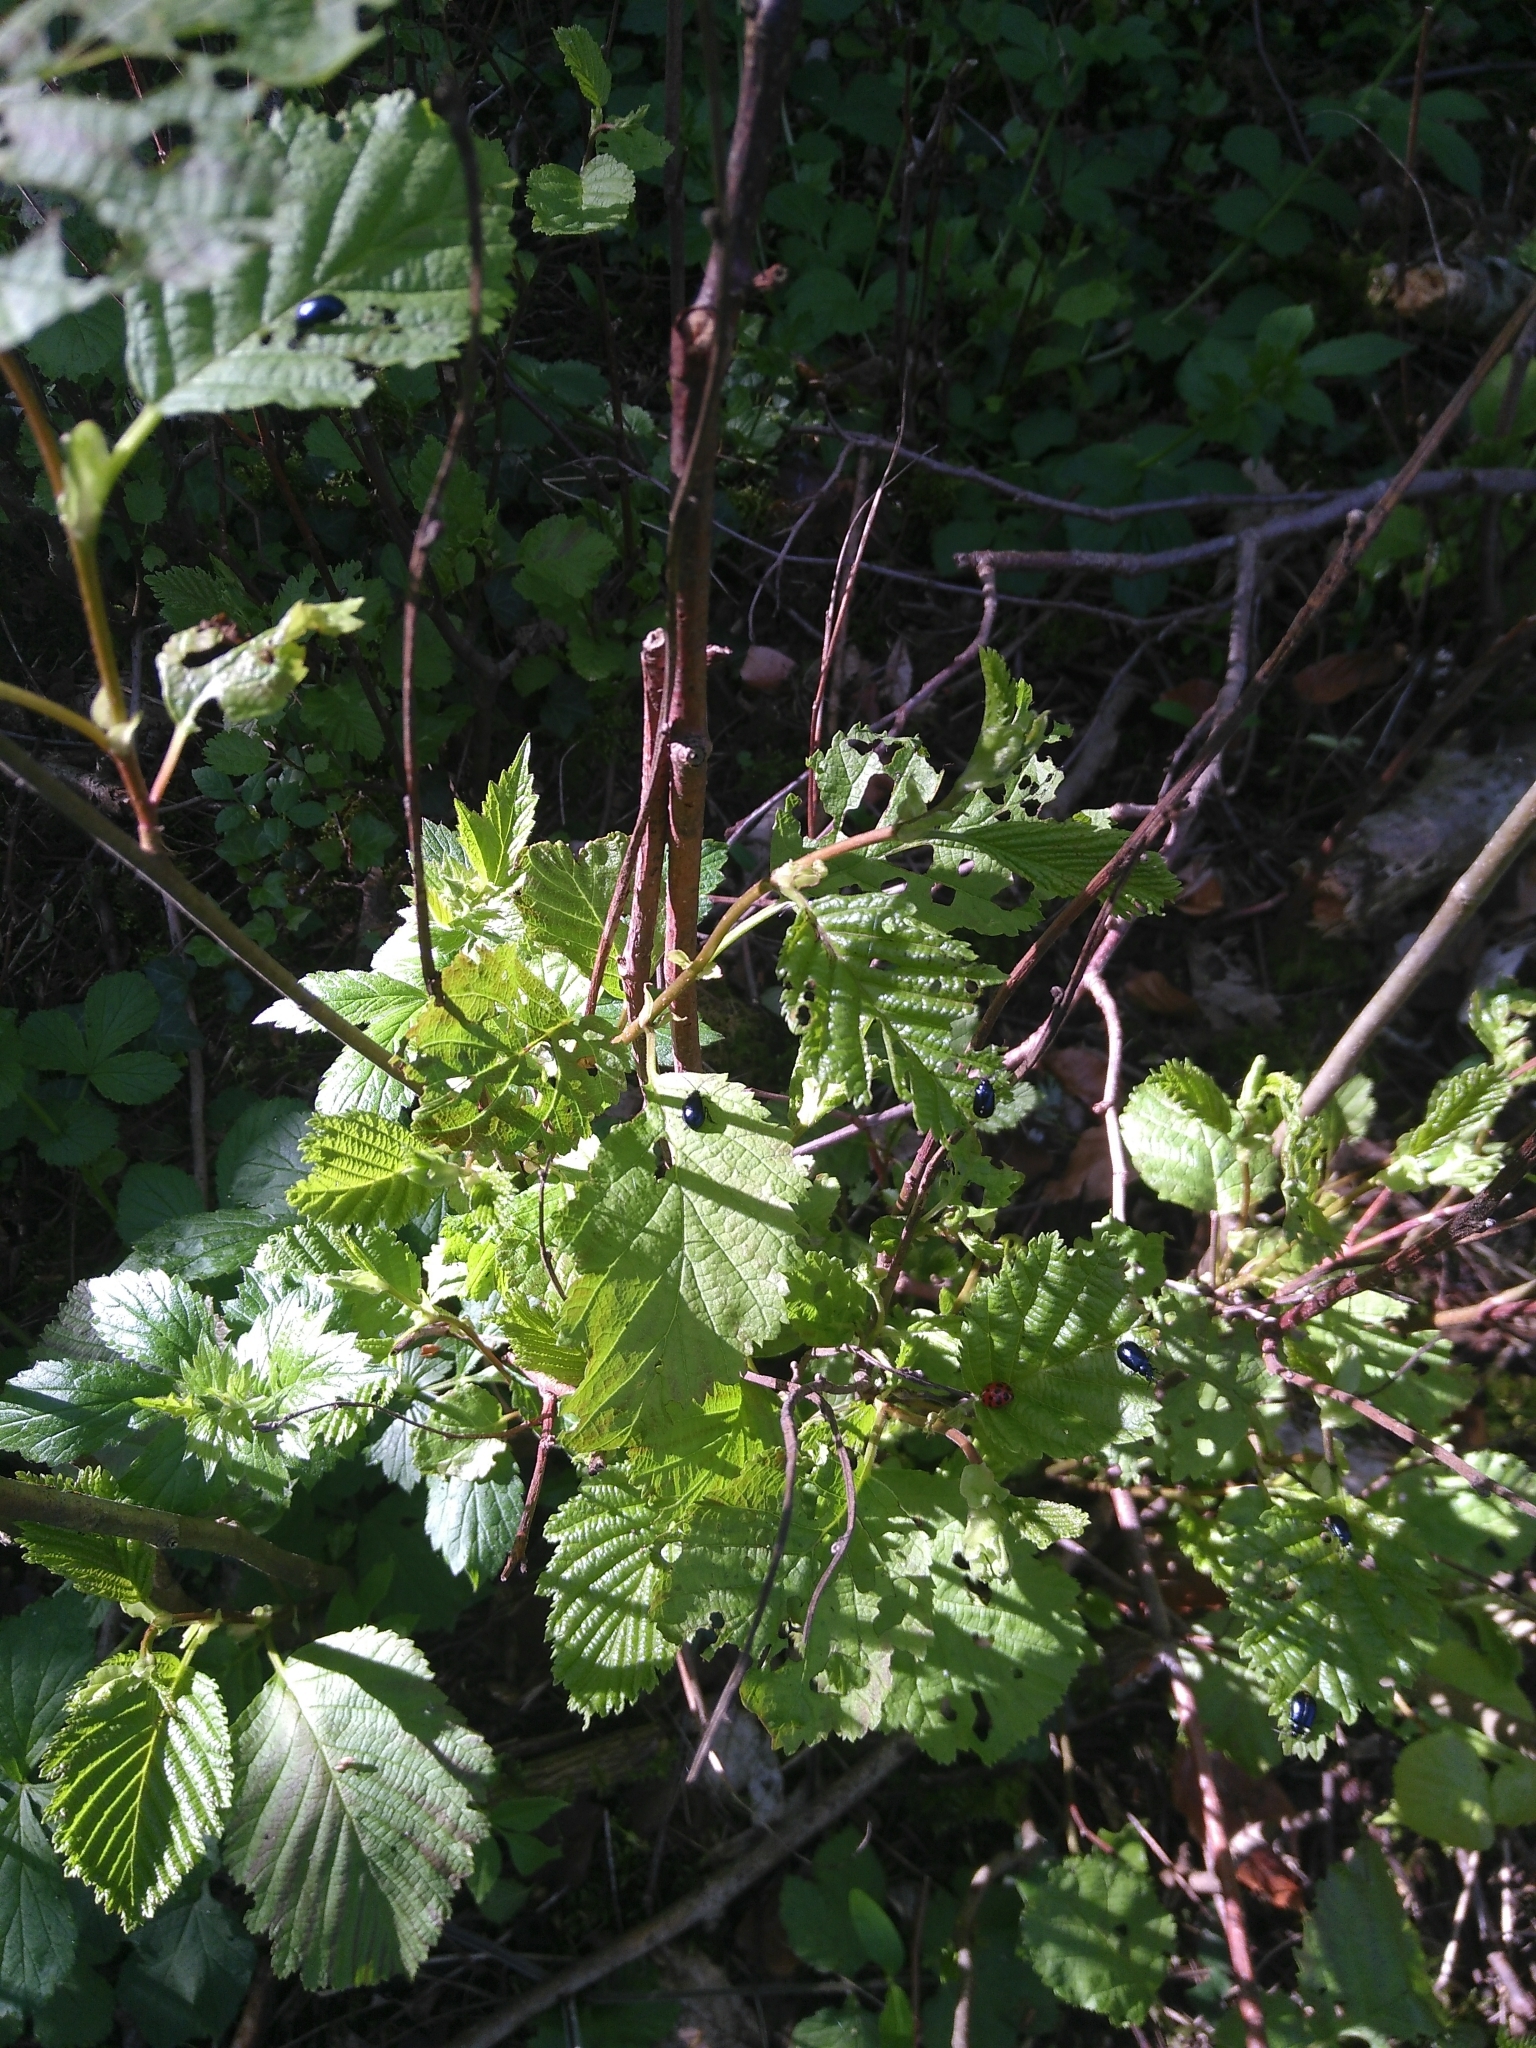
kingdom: Animalia
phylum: Arthropoda
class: Insecta
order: Coleoptera
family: Chrysomelidae
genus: Agelastica
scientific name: Agelastica alni
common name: Alder leaf beetle
